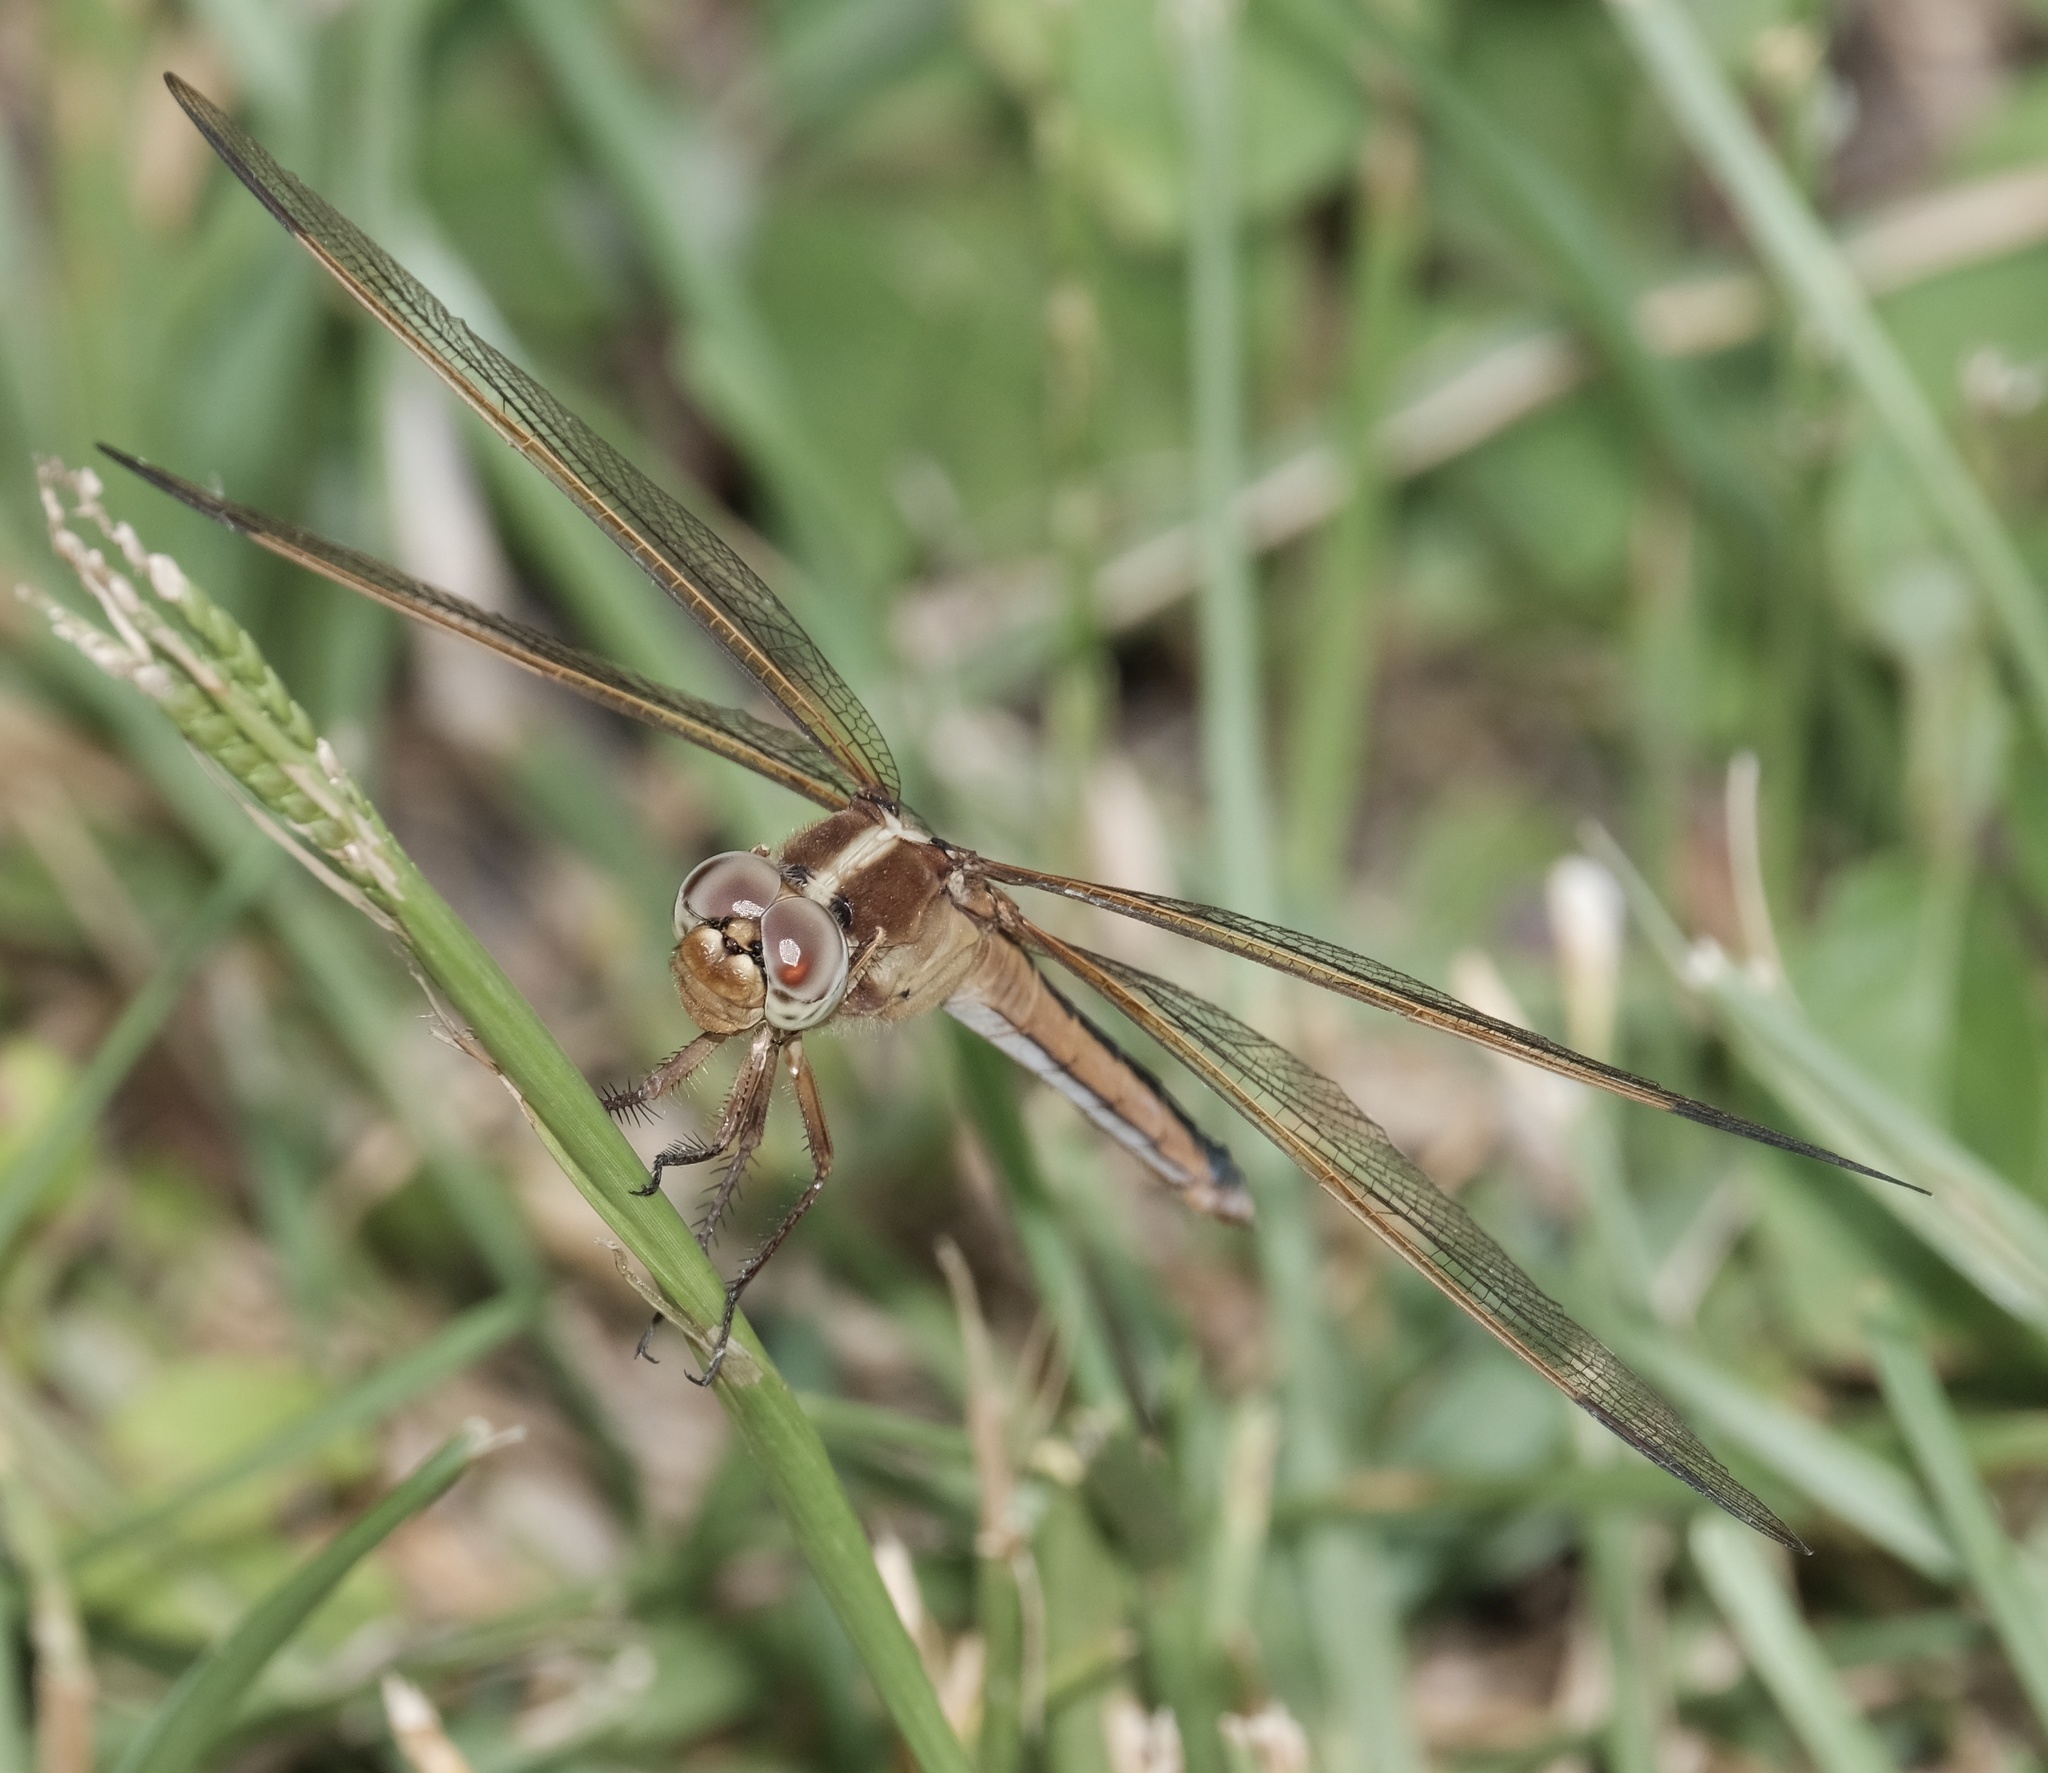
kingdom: Animalia
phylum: Arthropoda
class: Insecta
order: Odonata
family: Libellulidae
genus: Libellula
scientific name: Libellula needhami
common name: Needham's skimmer
